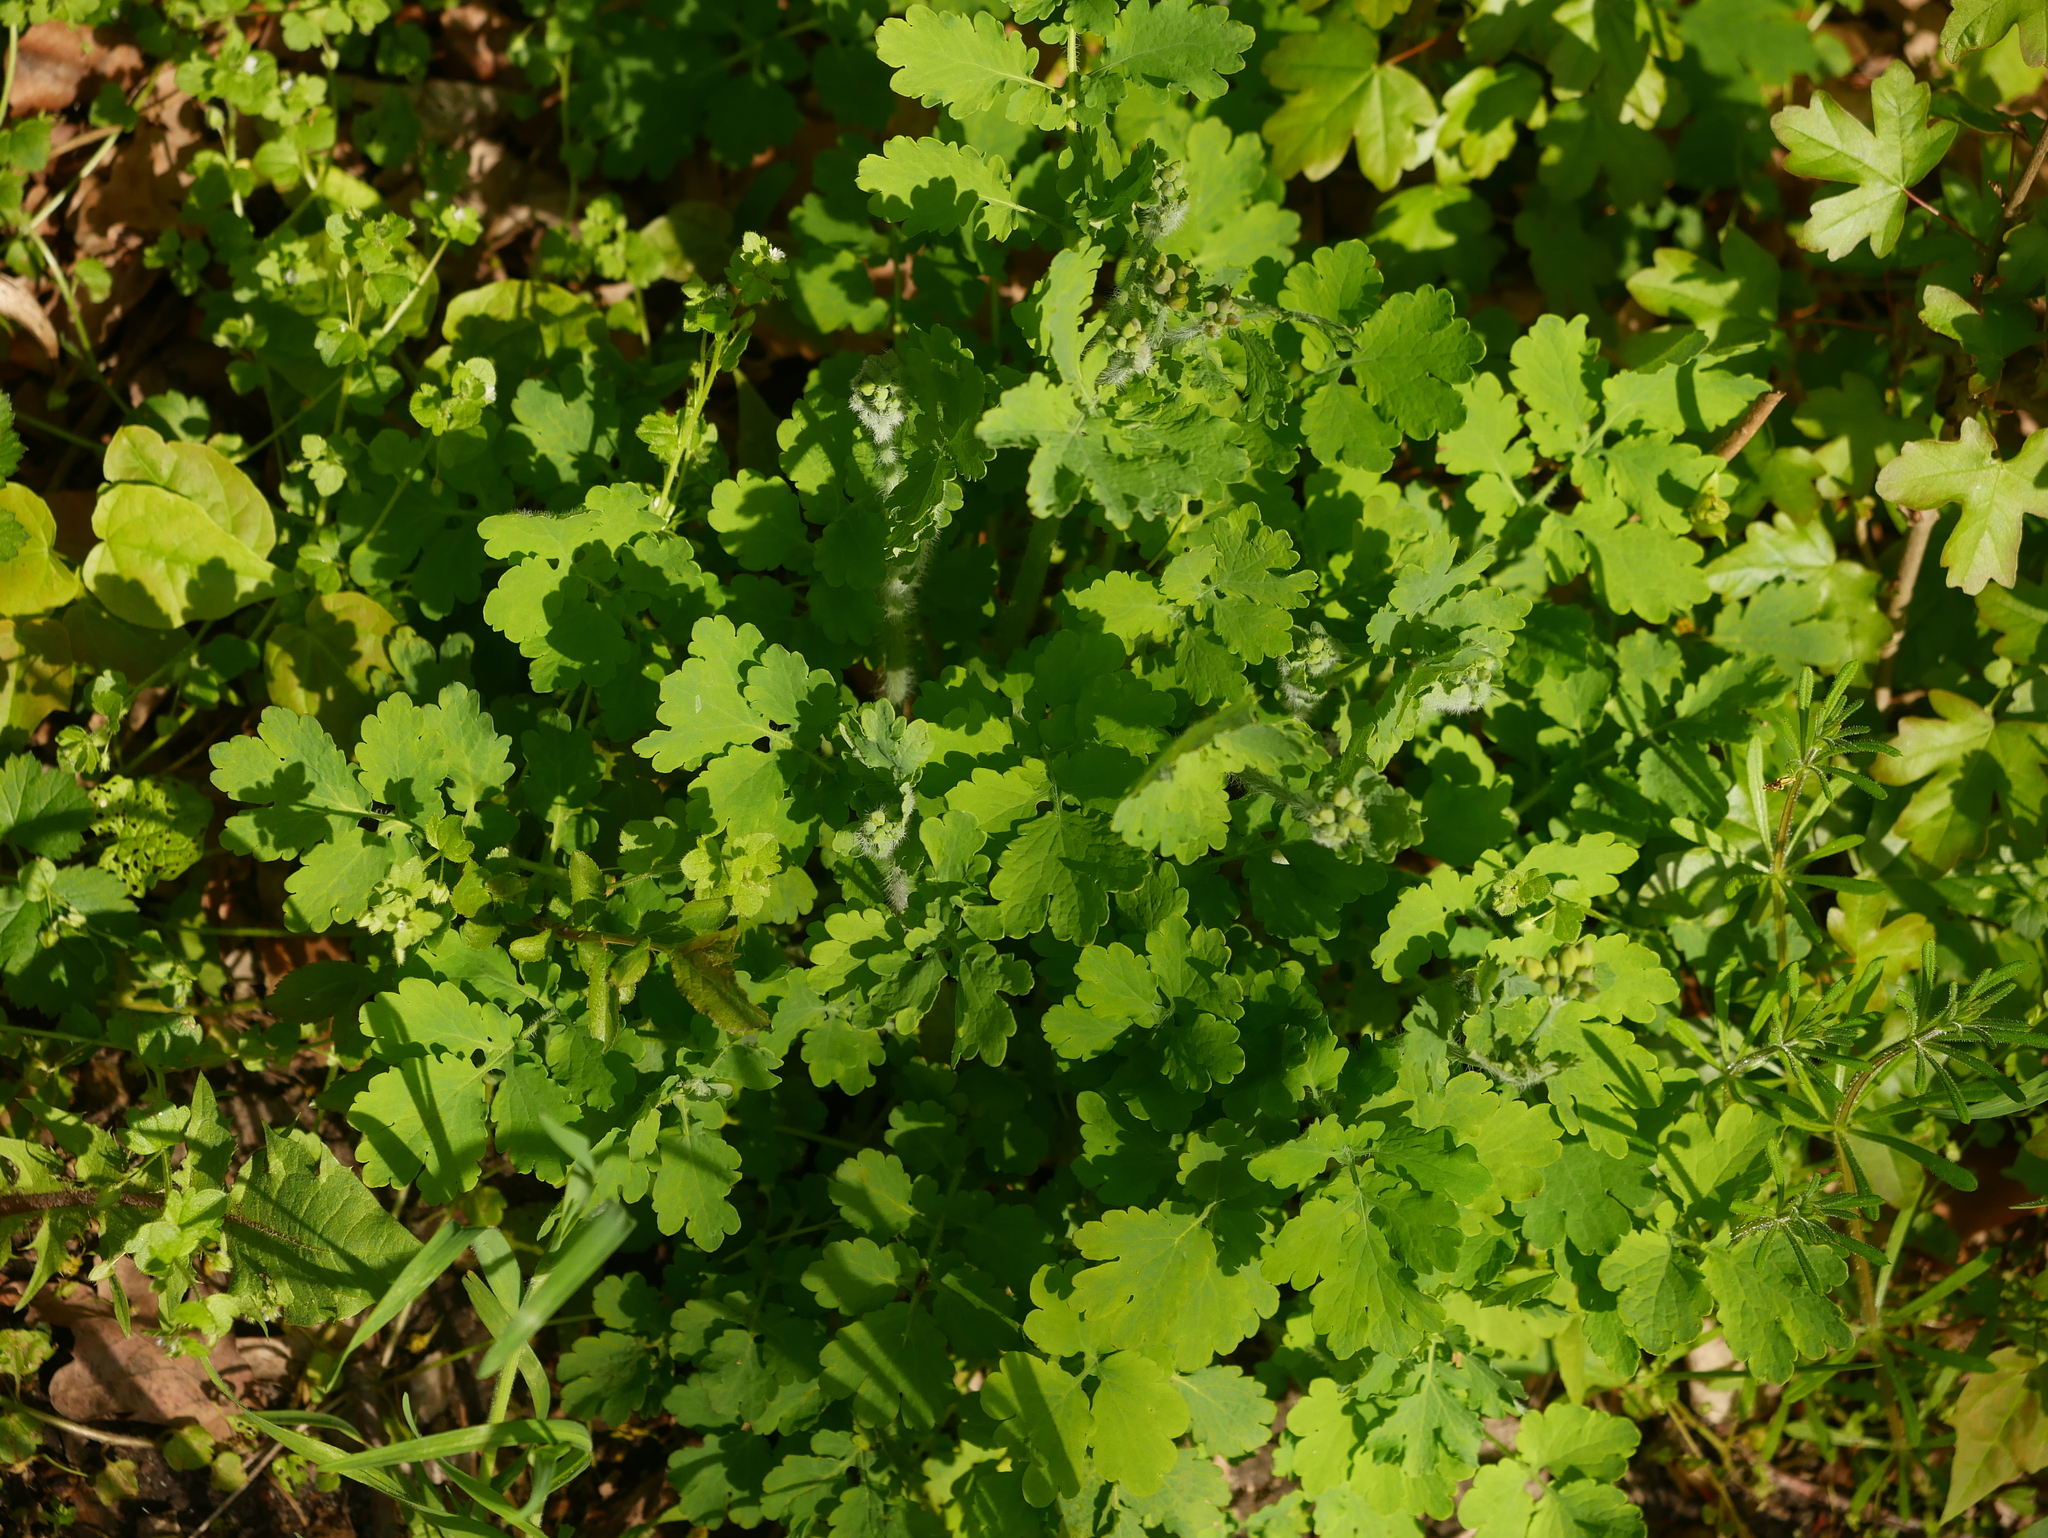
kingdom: Plantae
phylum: Tracheophyta
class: Magnoliopsida
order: Ranunculales
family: Papaveraceae
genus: Chelidonium
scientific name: Chelidonium majus
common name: Greater celandine
